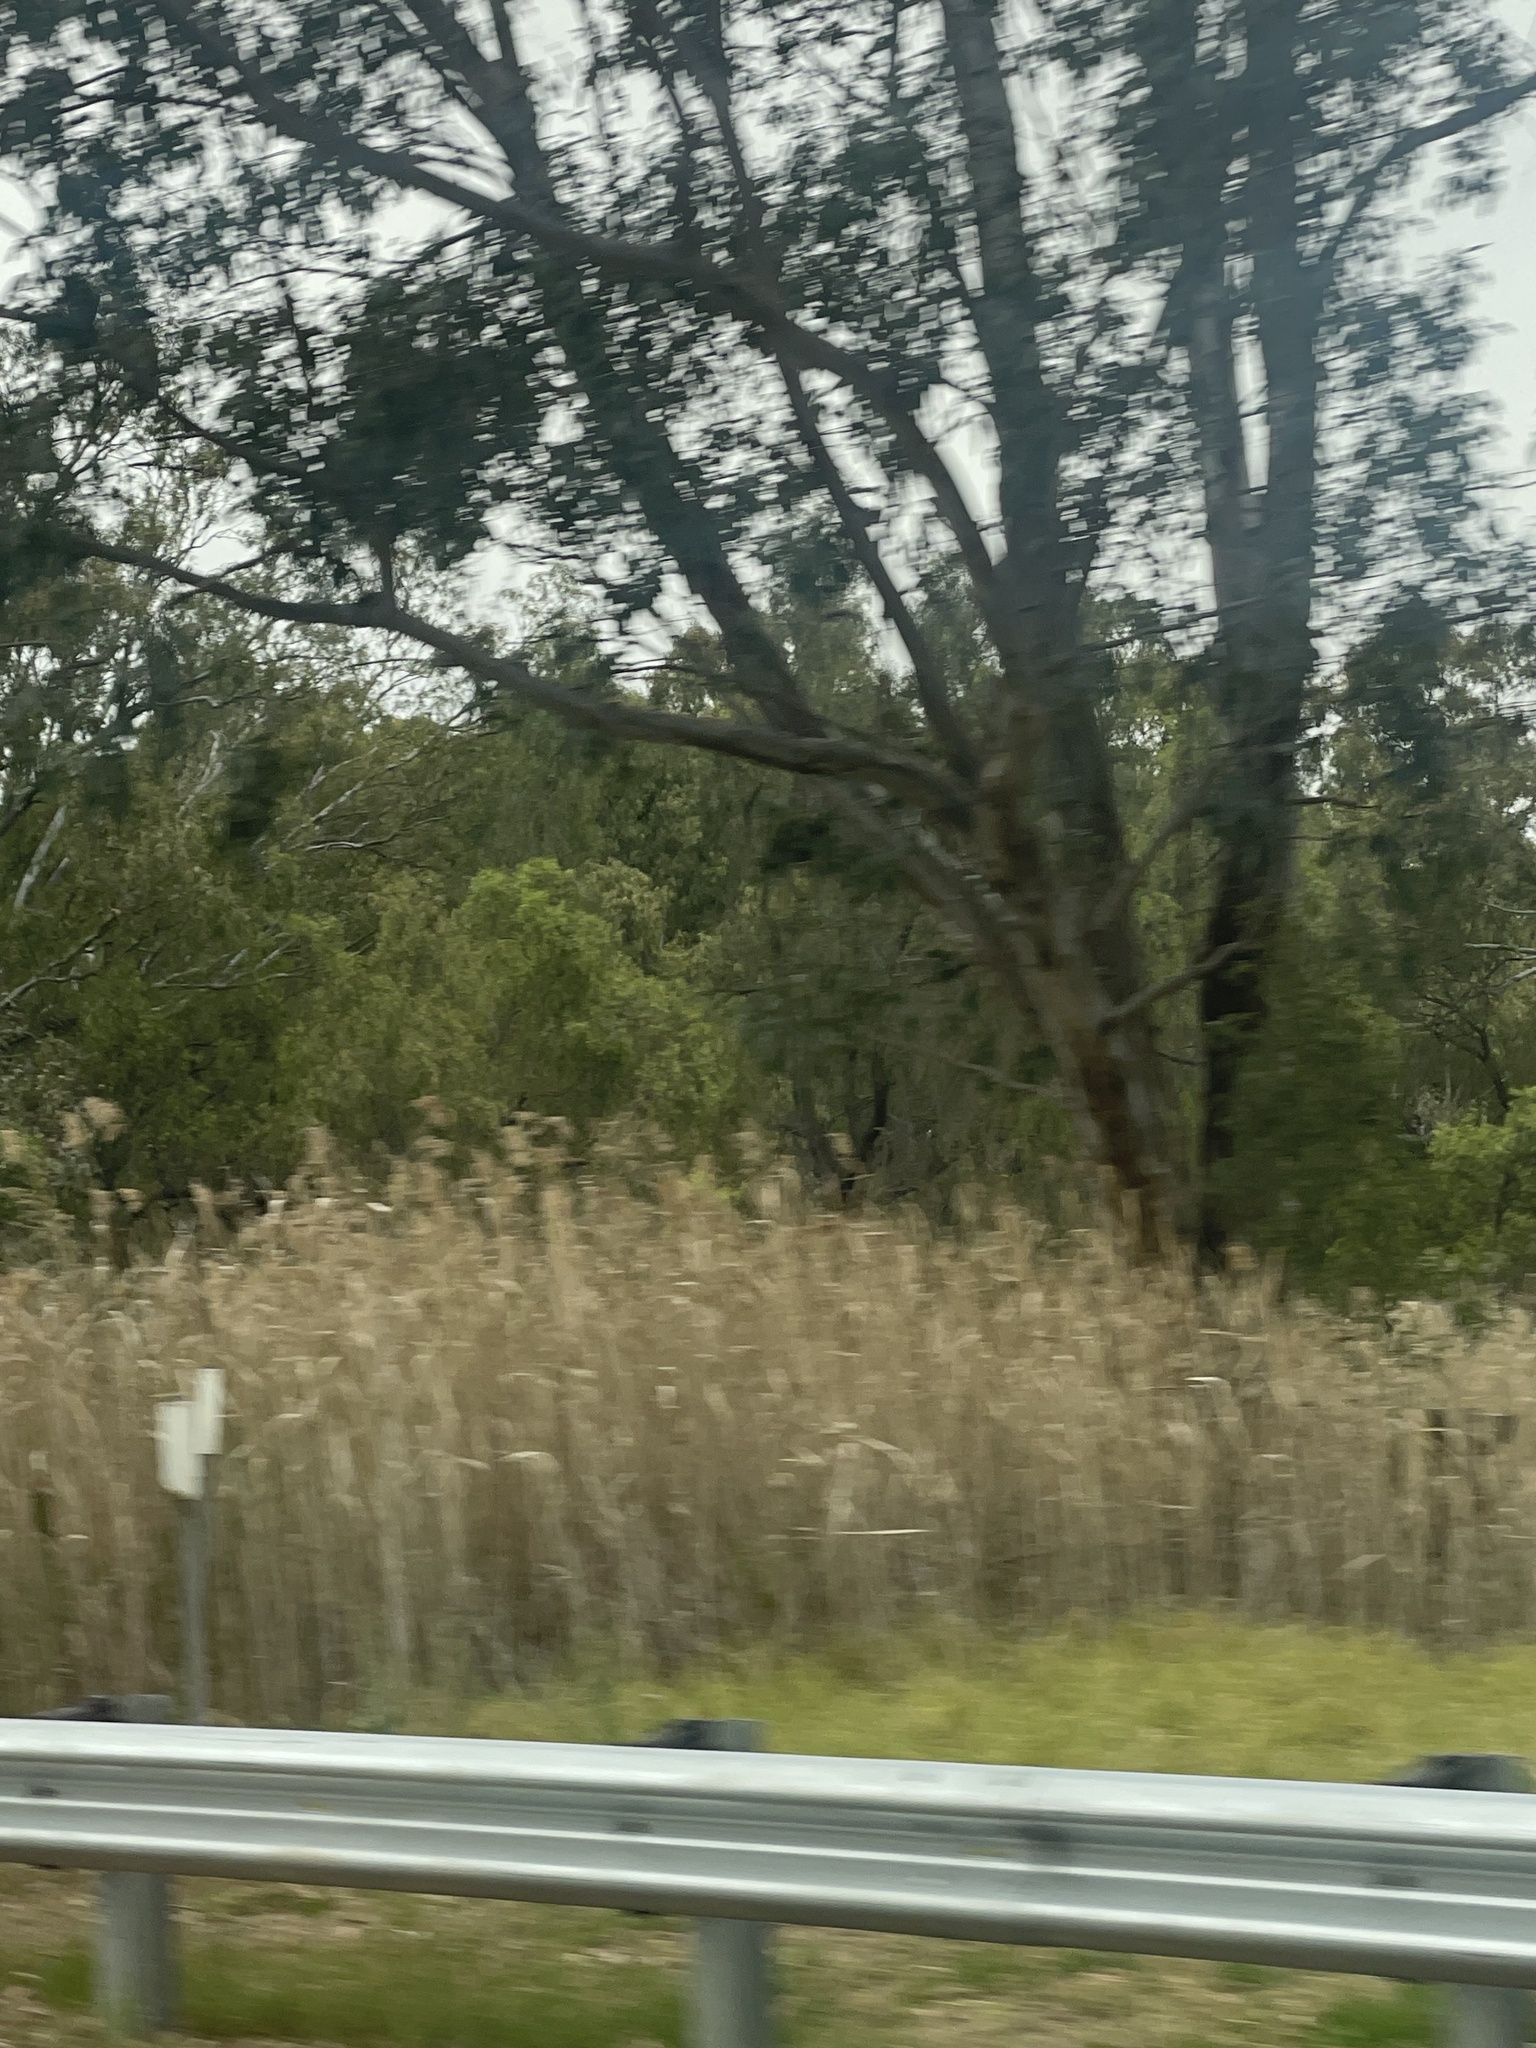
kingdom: Plantae
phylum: Tracheophyta
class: Liliopsida
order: Poales
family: Poaceae
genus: Phragmites
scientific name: Phragmites australis
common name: Common reed
